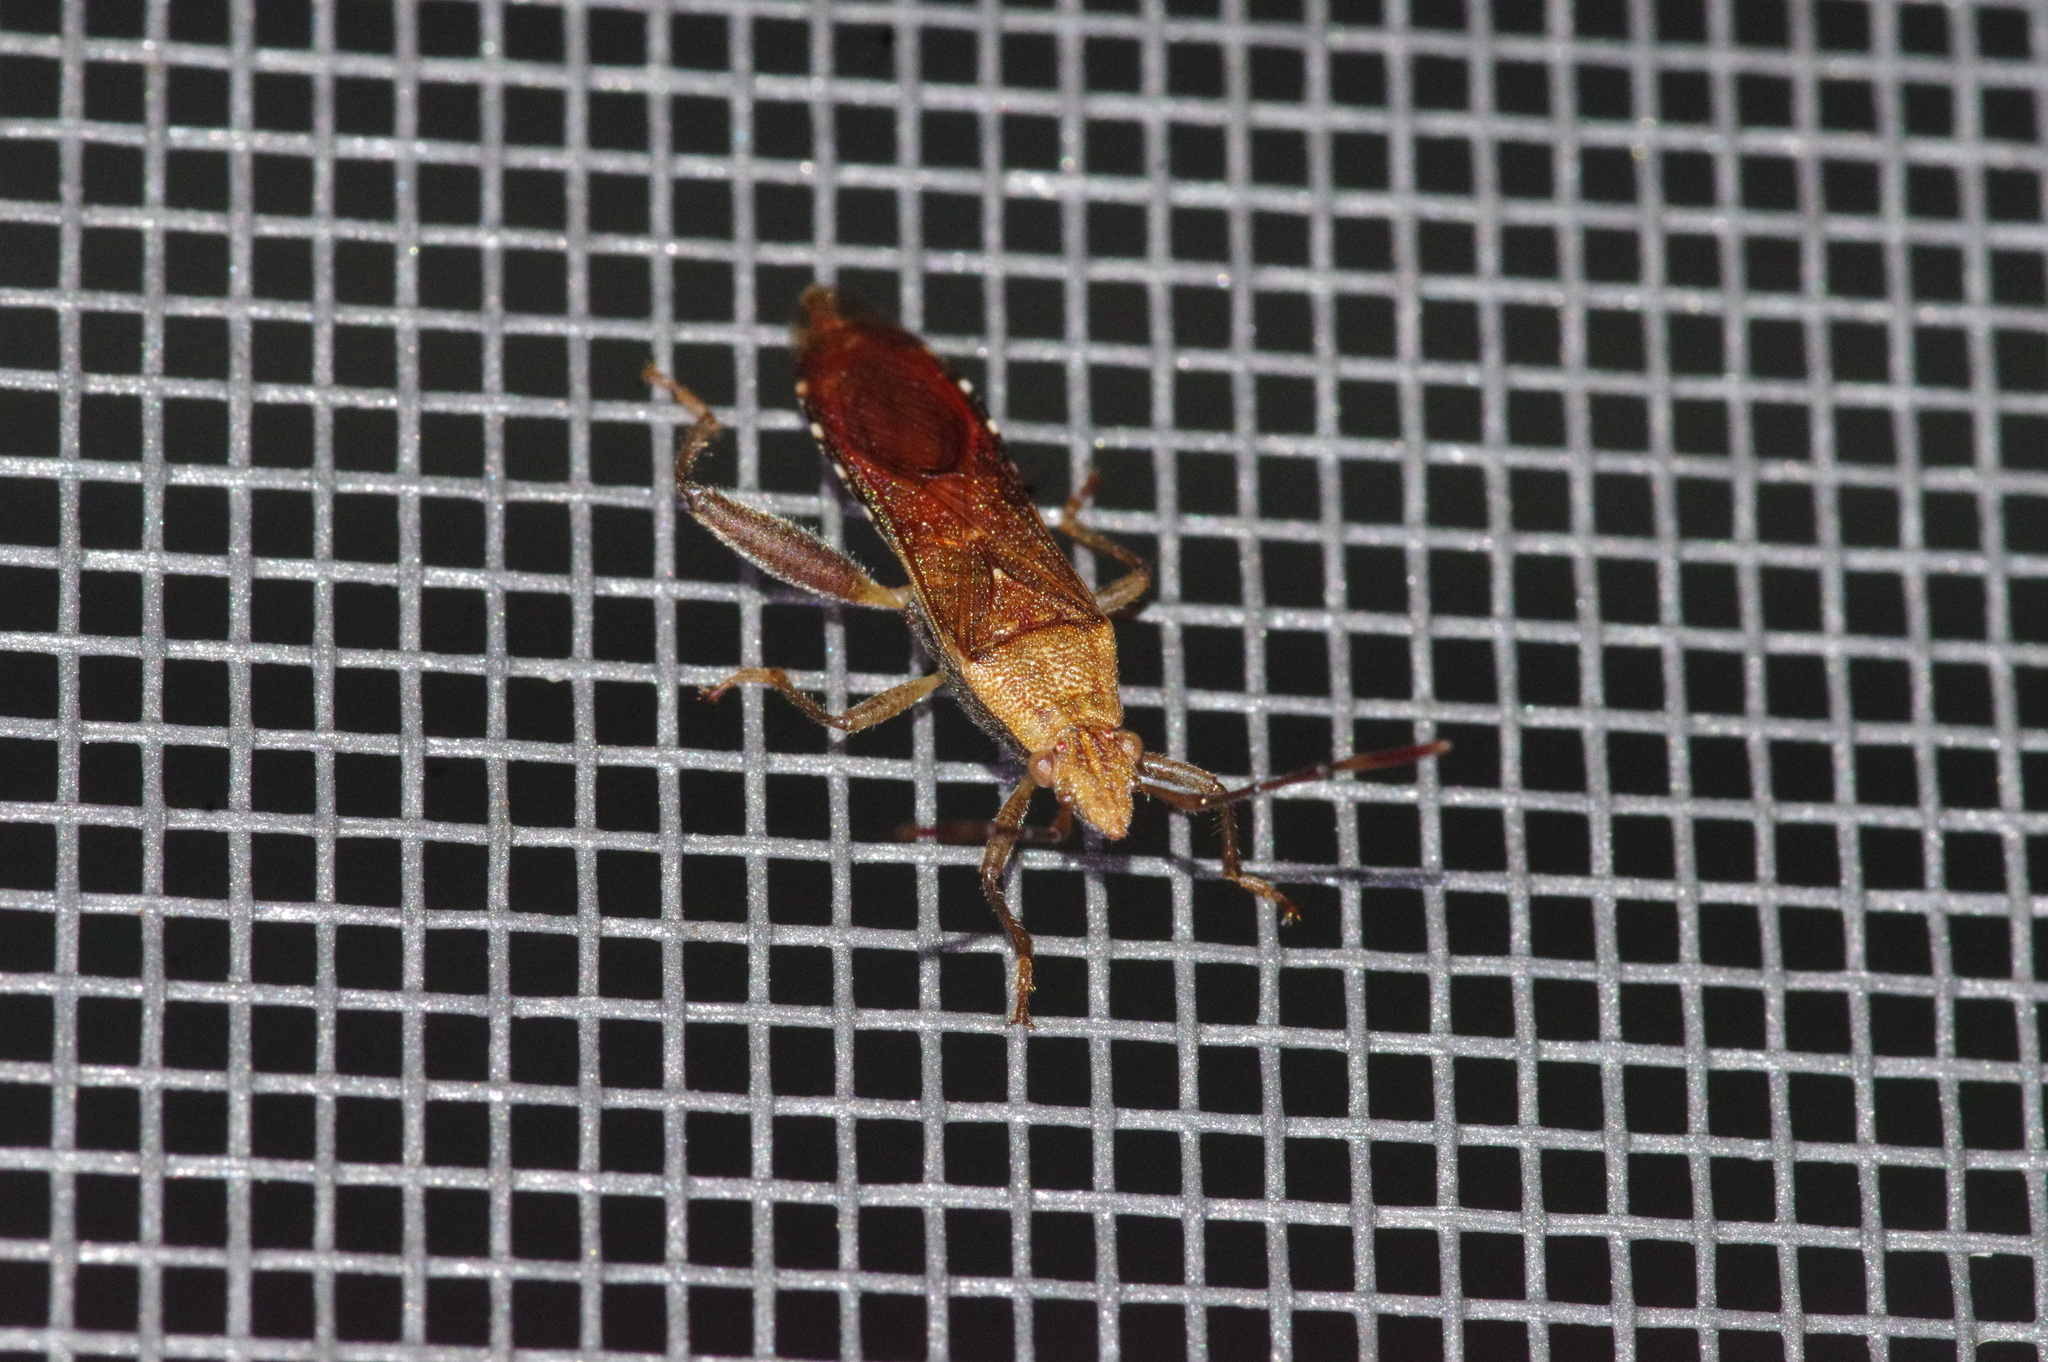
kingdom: Animalia
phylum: Arthropoda
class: Insecta
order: Hemiptera
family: Alydidae
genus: Daclera
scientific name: Daclera levana
